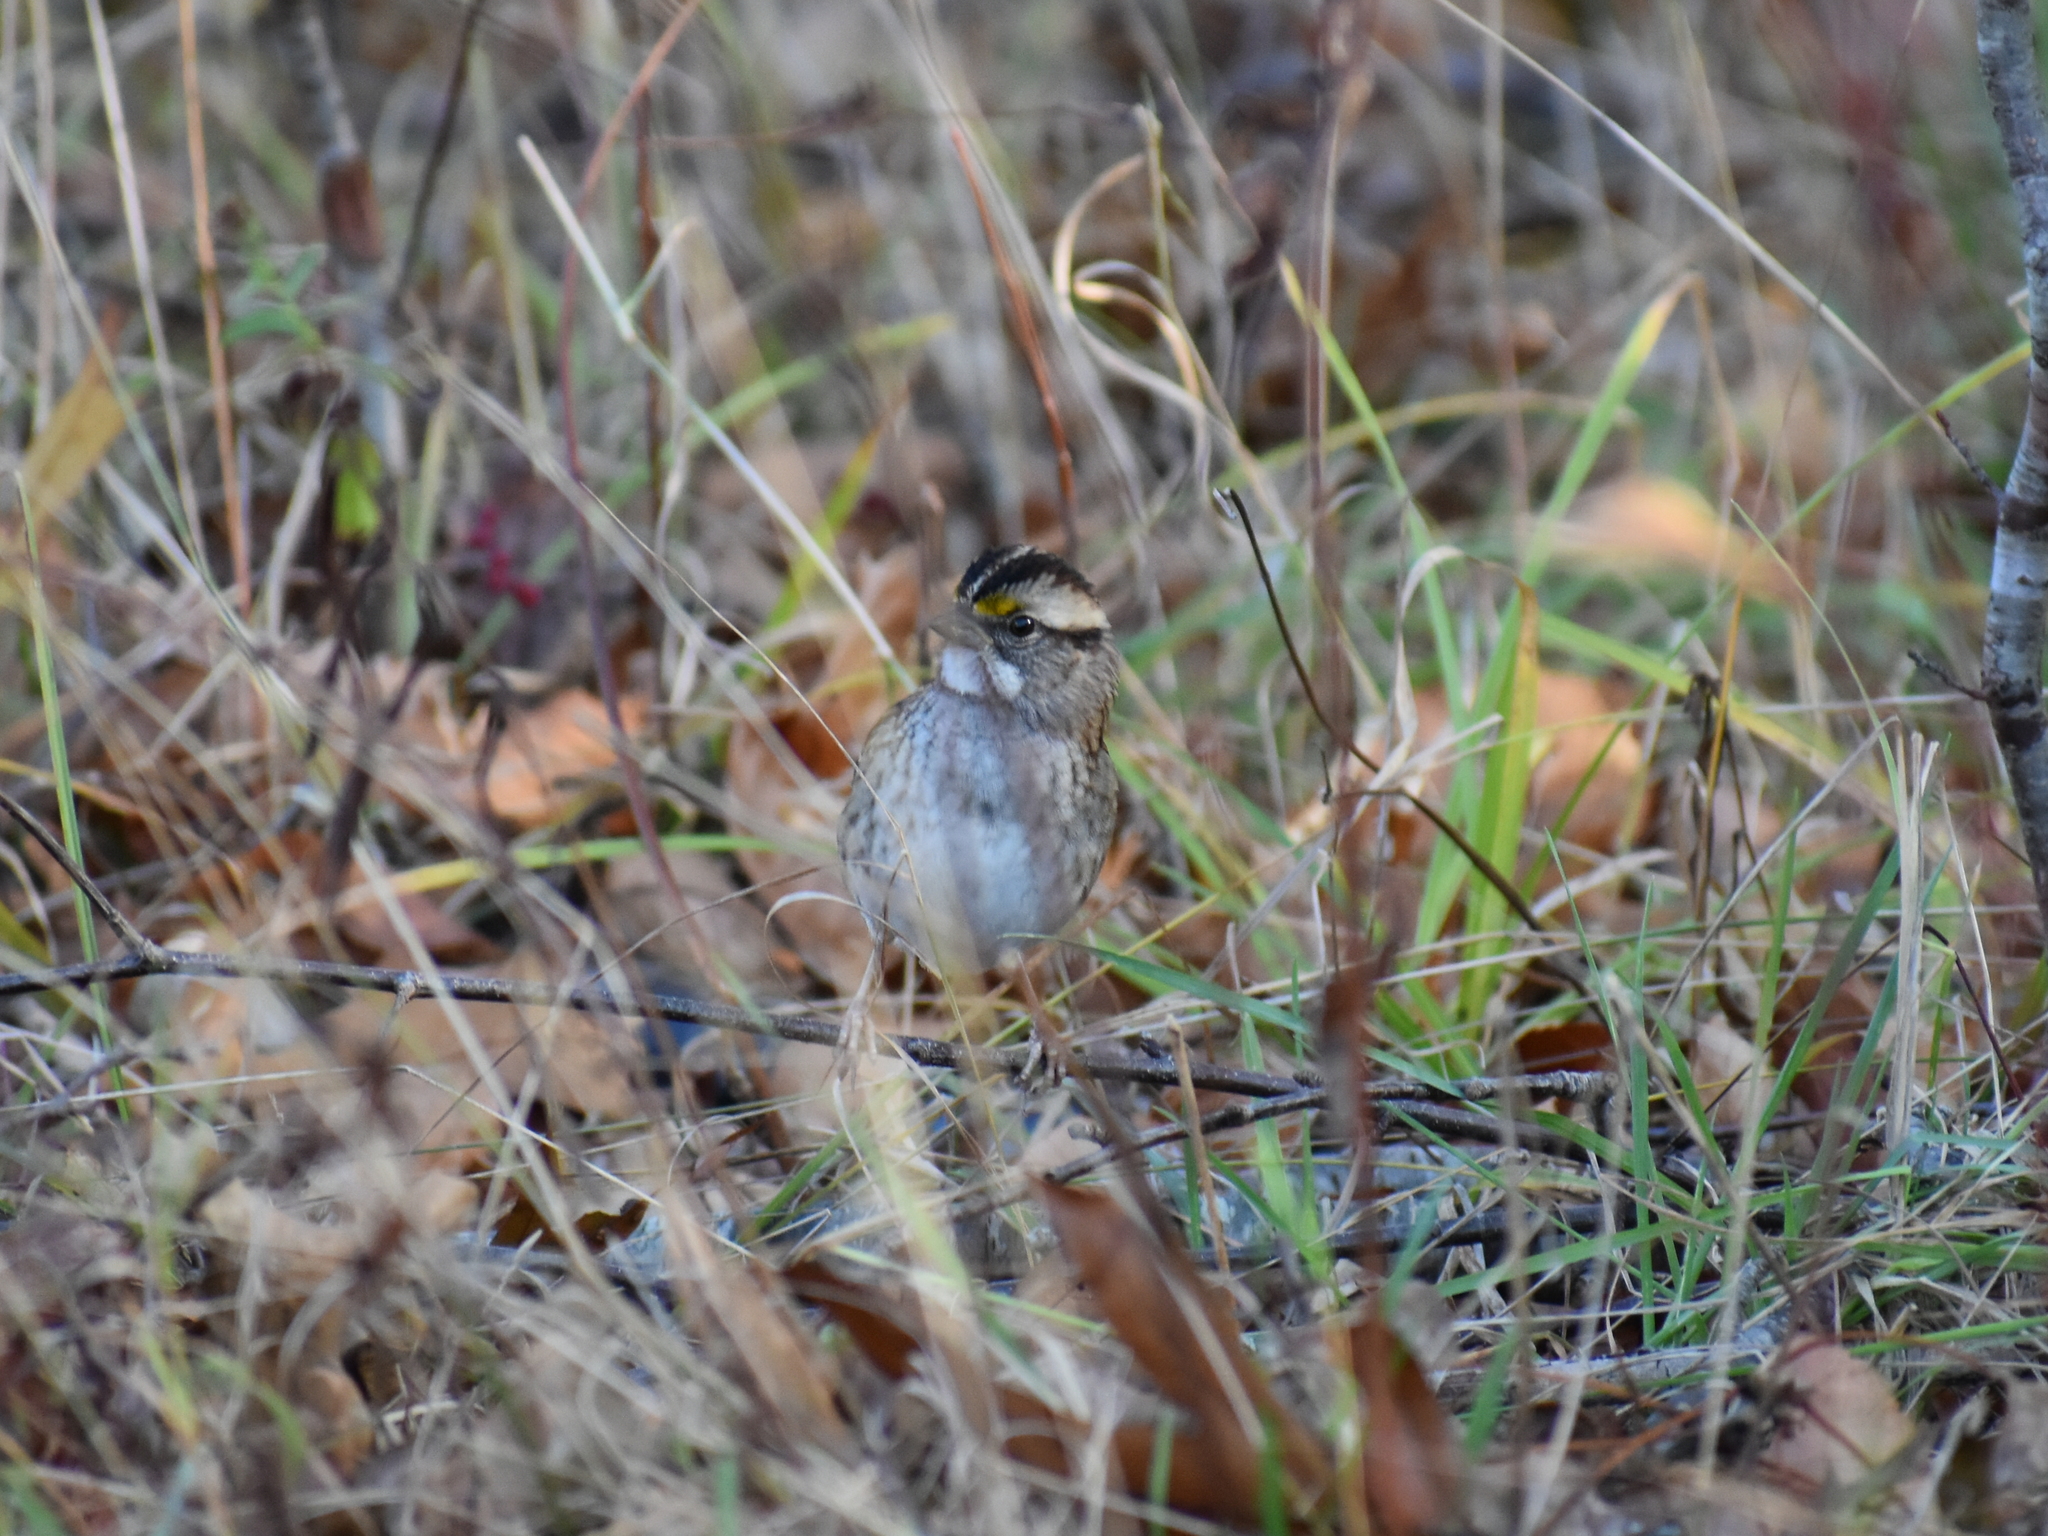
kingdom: Animalia
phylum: Chordata
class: Aves
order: Passeriformes
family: Passerellidae
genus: Zonotrichia
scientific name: Zonotrichia albicollis
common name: White-throated sparrow
